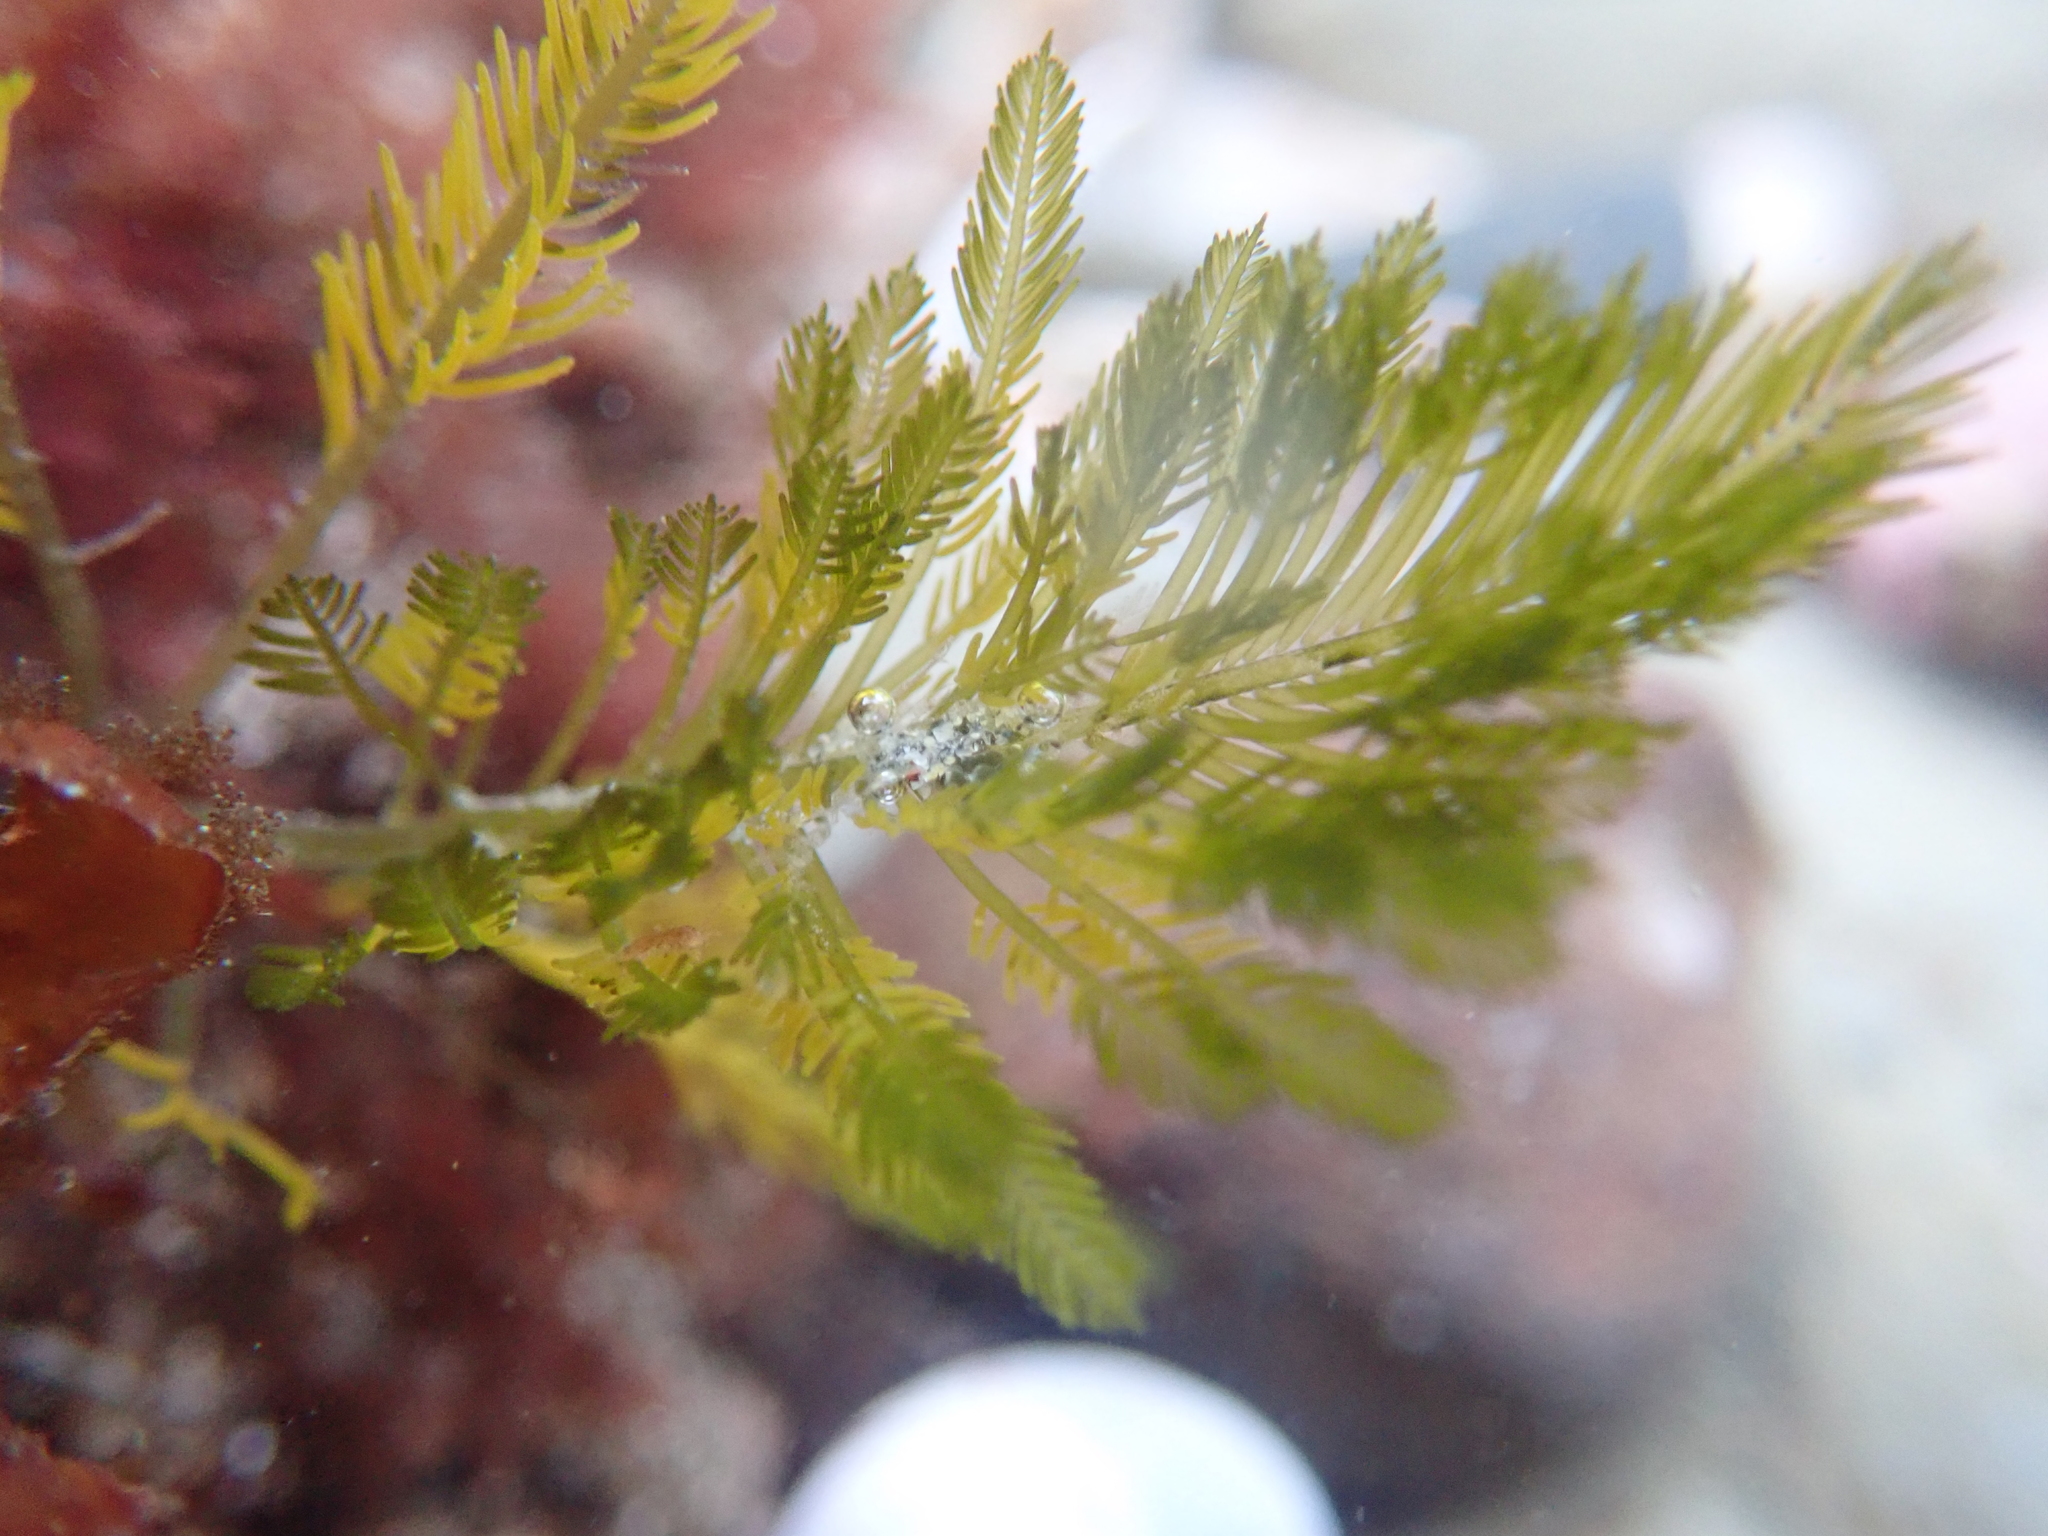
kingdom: Plantae
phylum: Chlorophyta
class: Ulvophyceae
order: Bryopsidales
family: Bryopsidaceae
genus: Bryopsis
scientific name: Bryopsis corticulans
